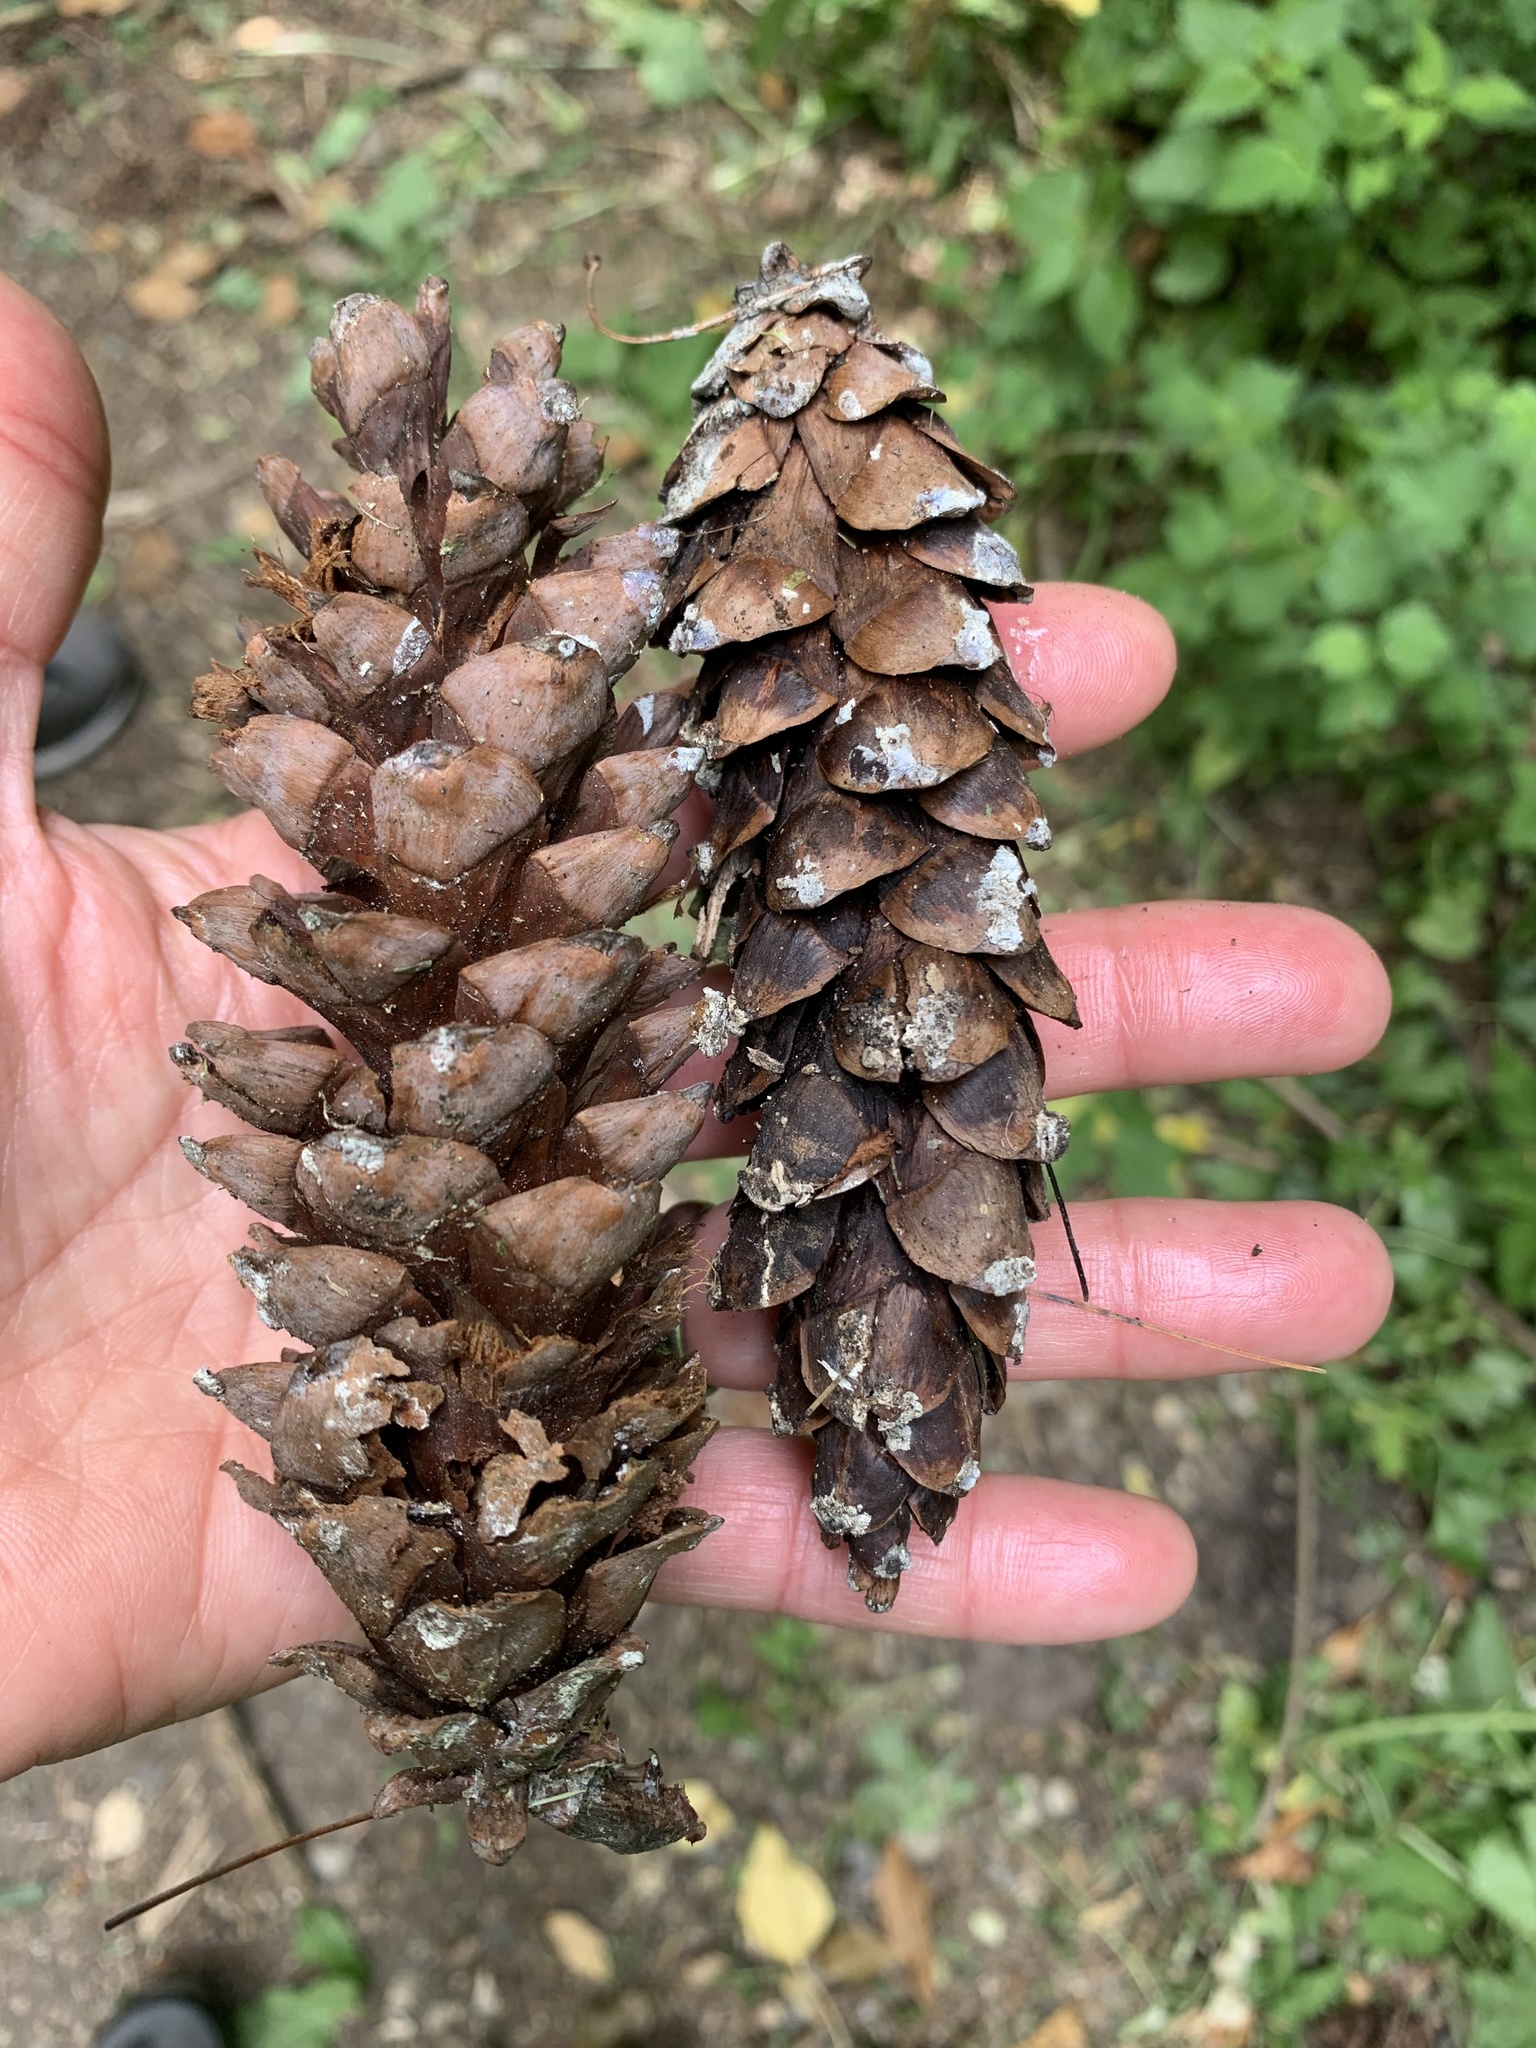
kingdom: Plantae
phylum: Tracheophyta
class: Pinopsida
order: Pinales
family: Pinaceae
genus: Pinus
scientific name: Pinus strobus
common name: Weymouth pine
